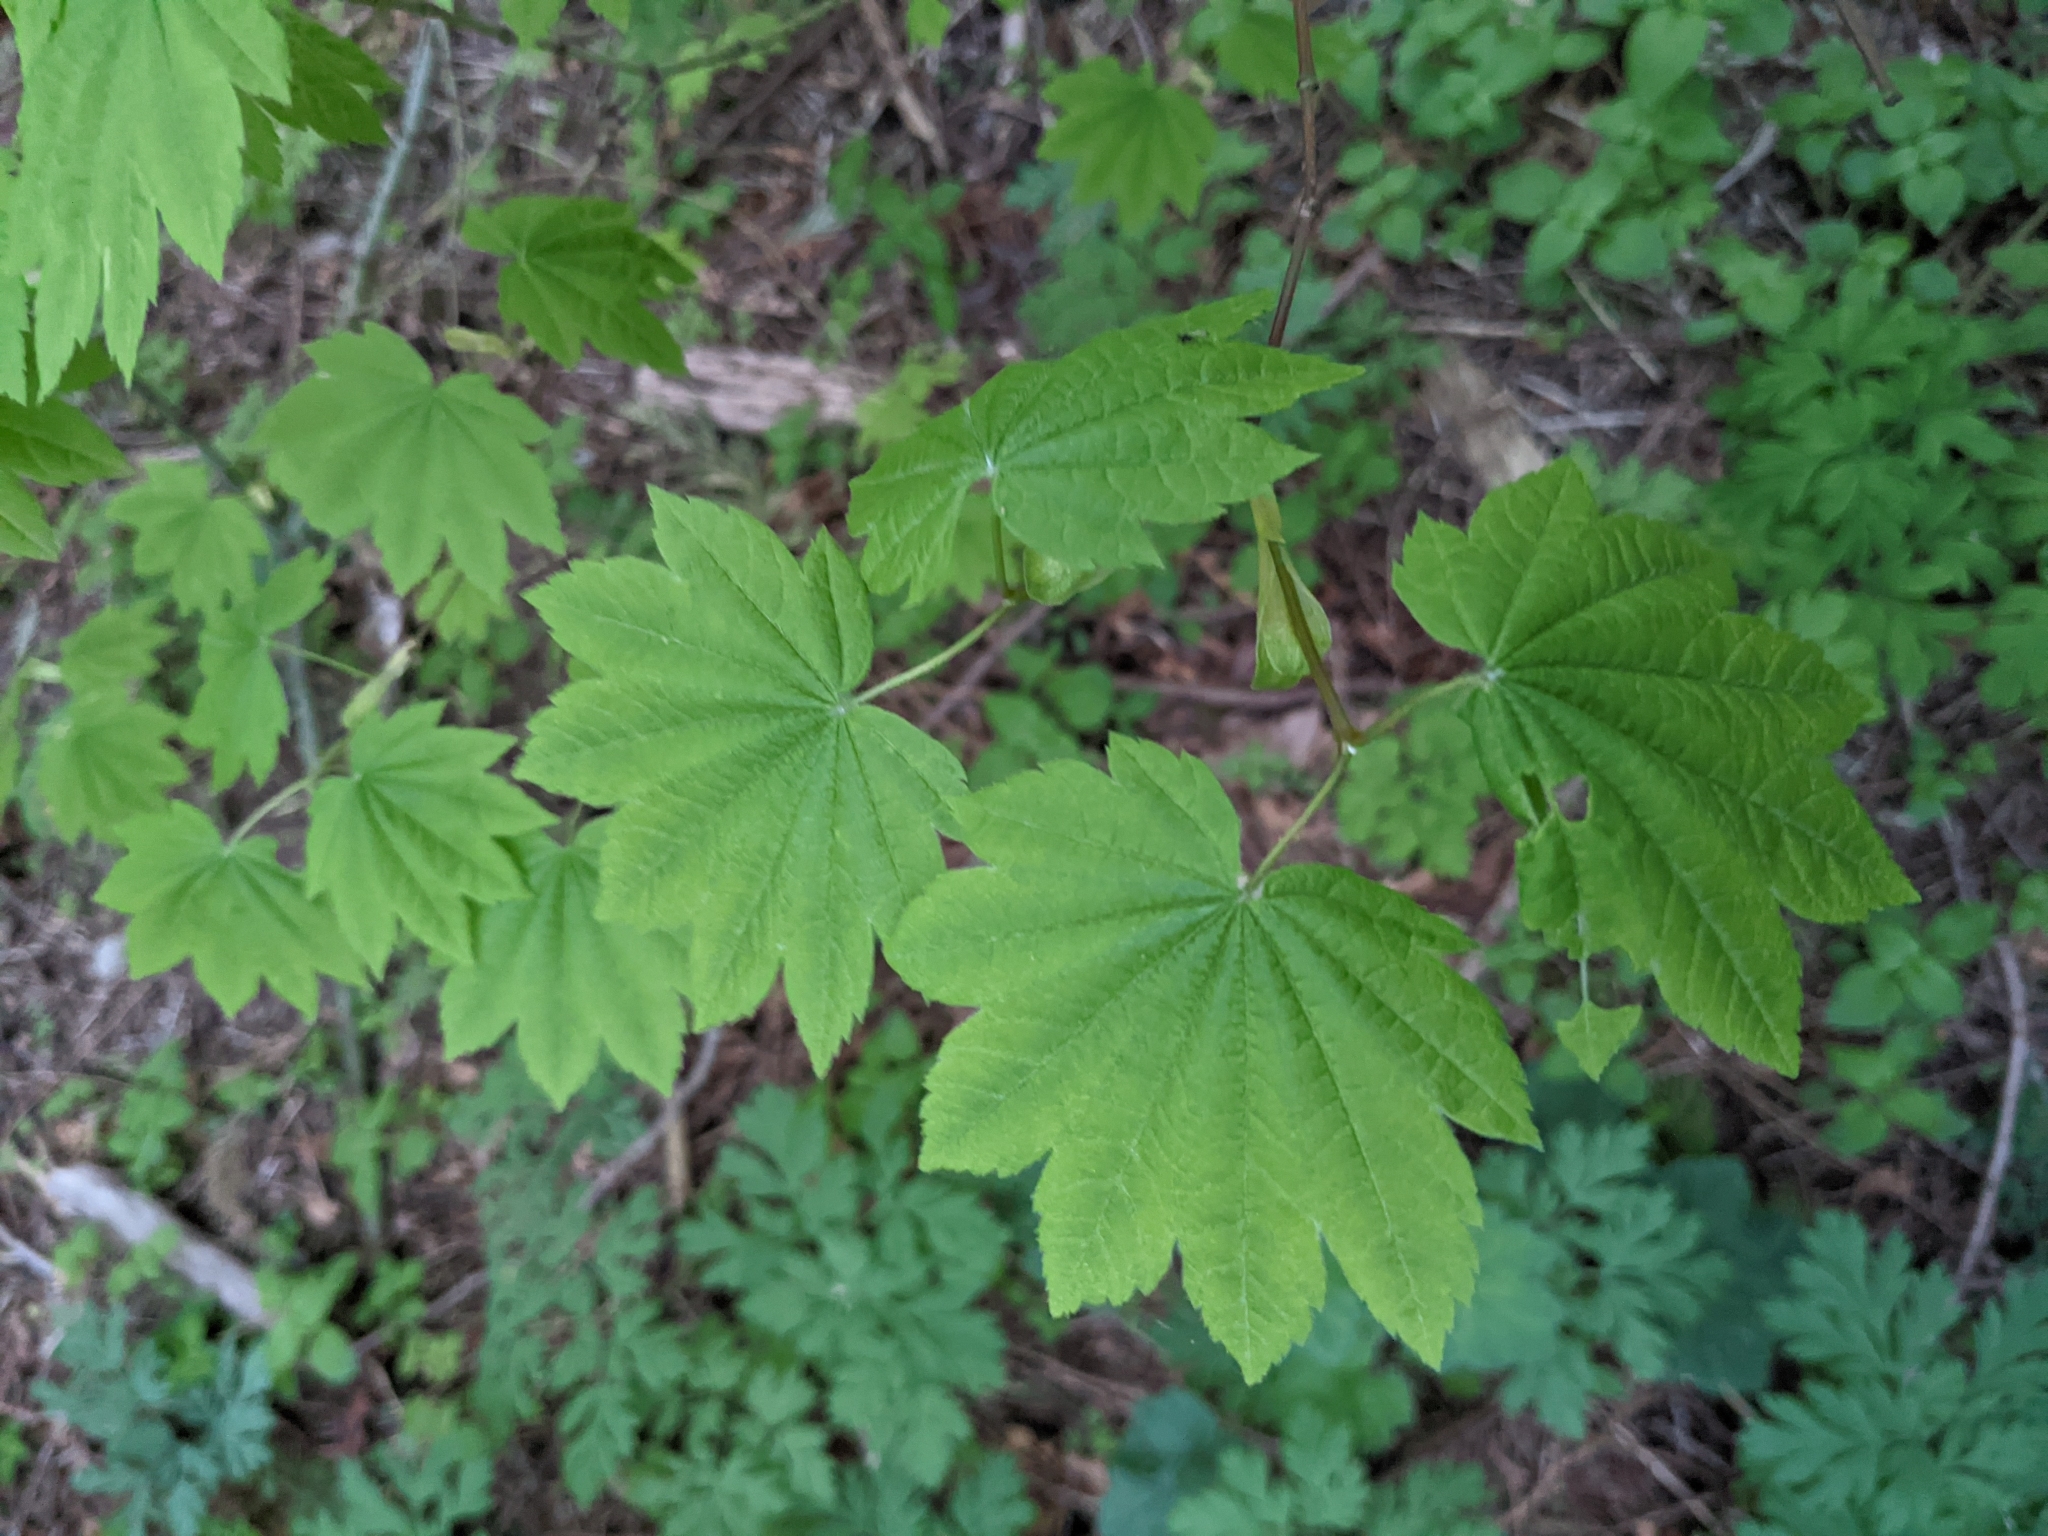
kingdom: Plantae
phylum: Tracheophyta
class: Magnoliopsida
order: Sapindales
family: Sapindaceae
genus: Acer
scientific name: Acer circinatum
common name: Vine maple
